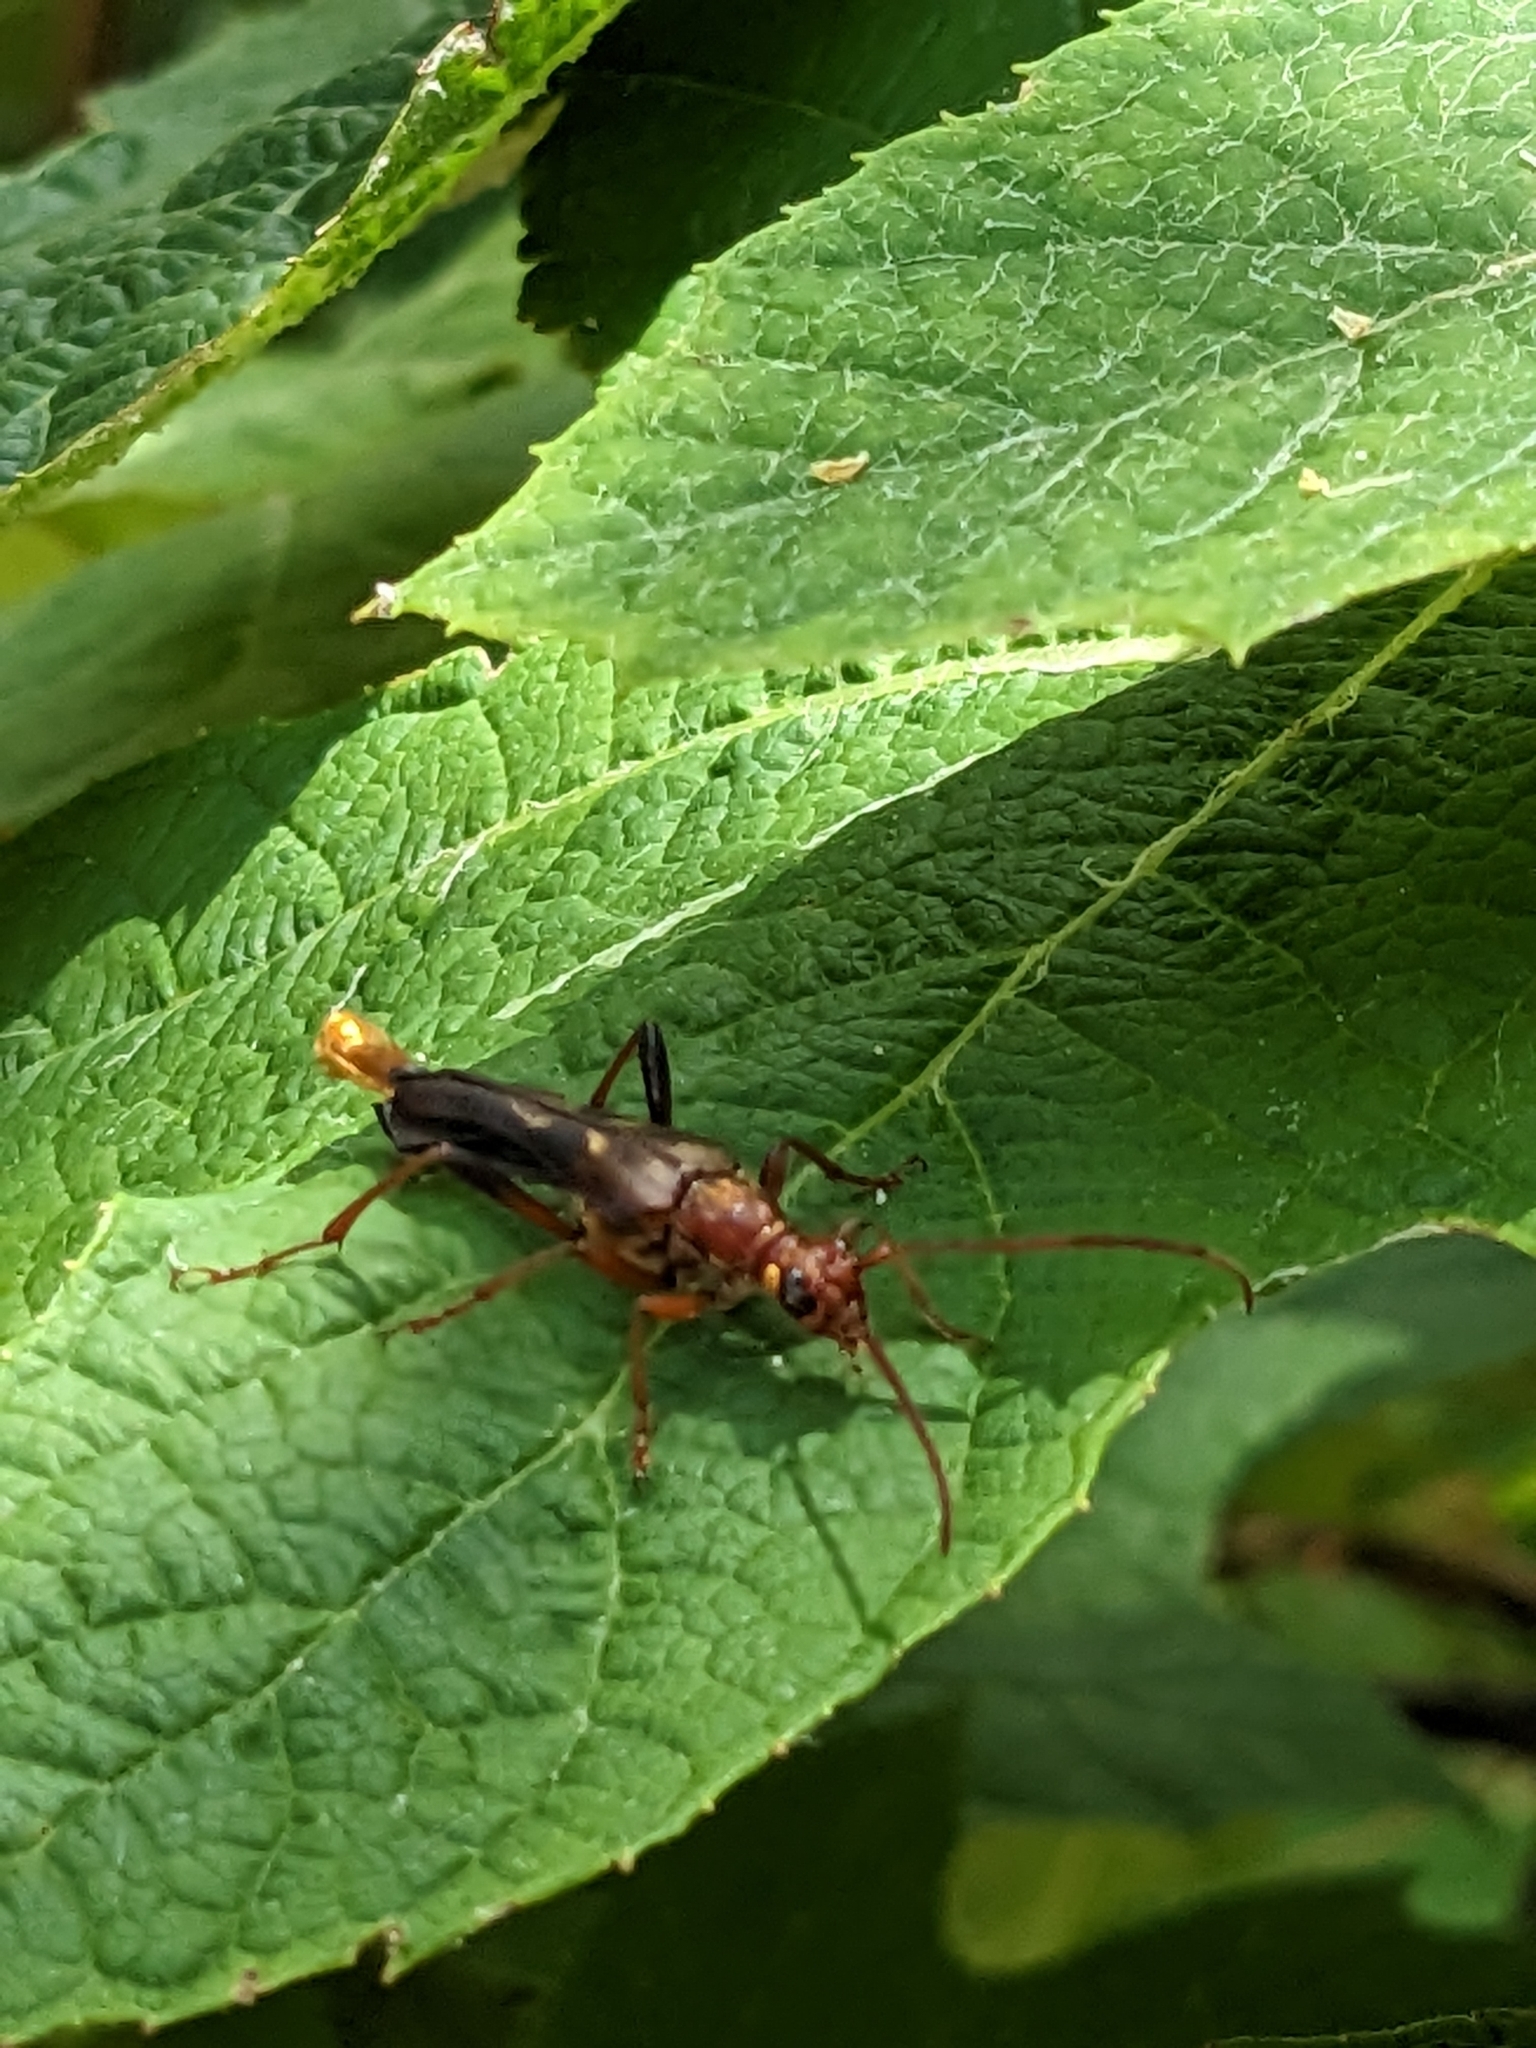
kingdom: Animalia
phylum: Arthropoda
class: Insecta
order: Coleoptera
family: Cerambycidae
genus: Bellamira
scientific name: Bellamira scalaris
